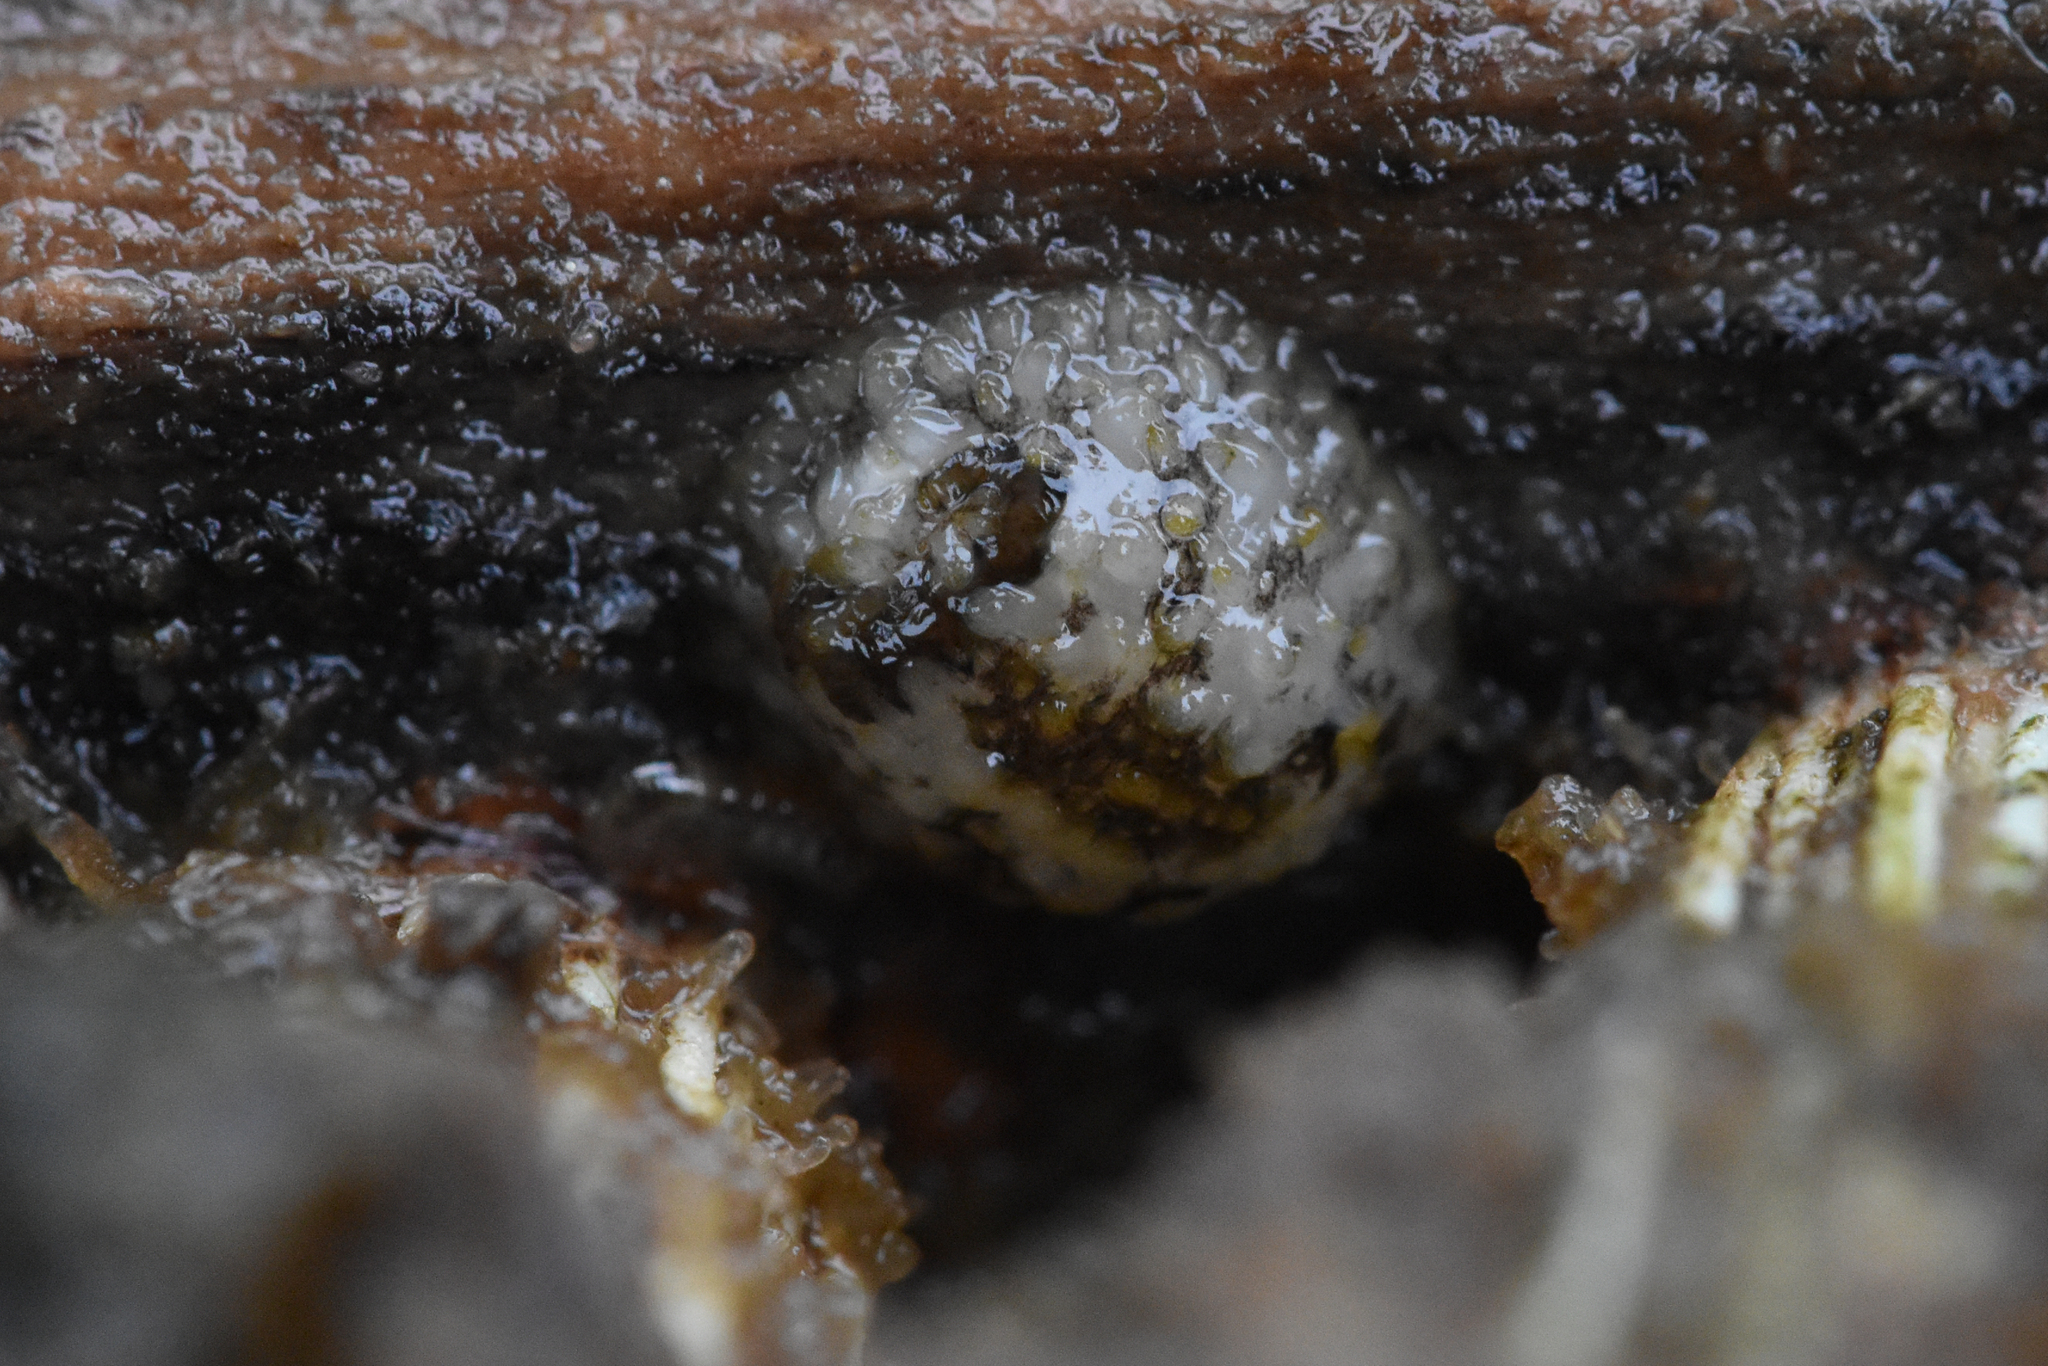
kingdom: Animalia
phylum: Mollusca
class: Gastropoda
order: Nudibranchia
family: Onchidorididae
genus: Onchidoris
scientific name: Onchidoris bilamellata
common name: Barnacle-eating onchidoris
